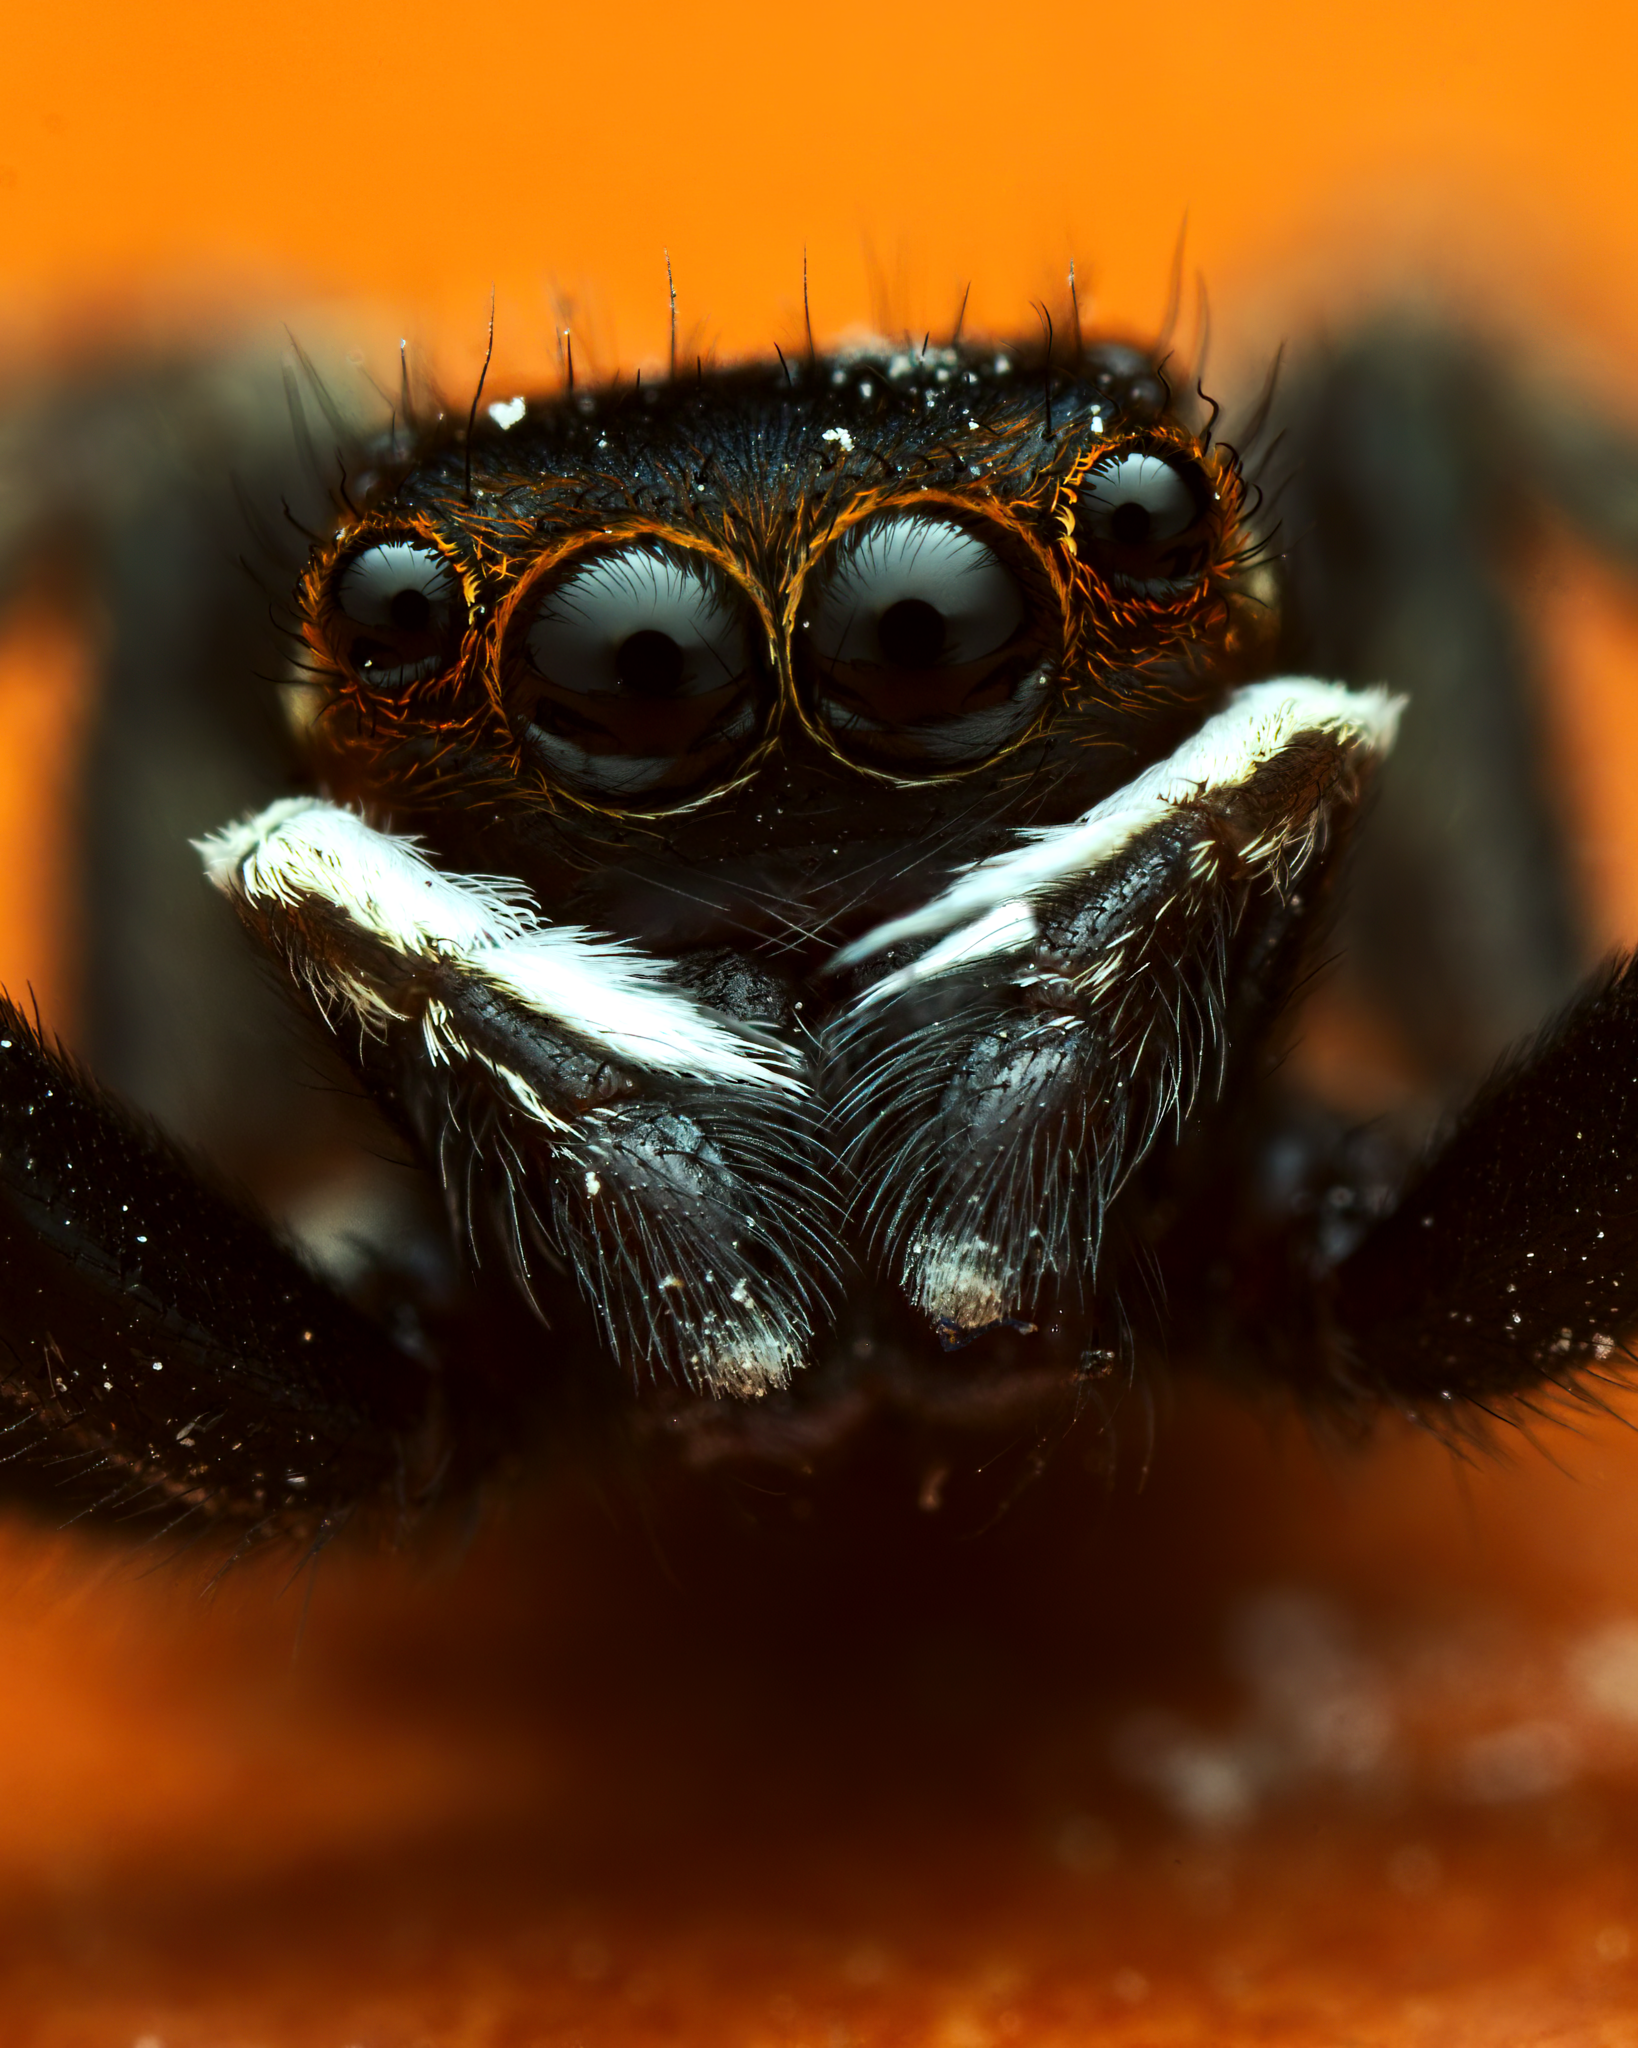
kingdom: Animalia
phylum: Arthropoda
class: Arachnida
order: Araneae
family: Salticidae
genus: Hasarius
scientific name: Hasarius adansoni
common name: Jumping spider
